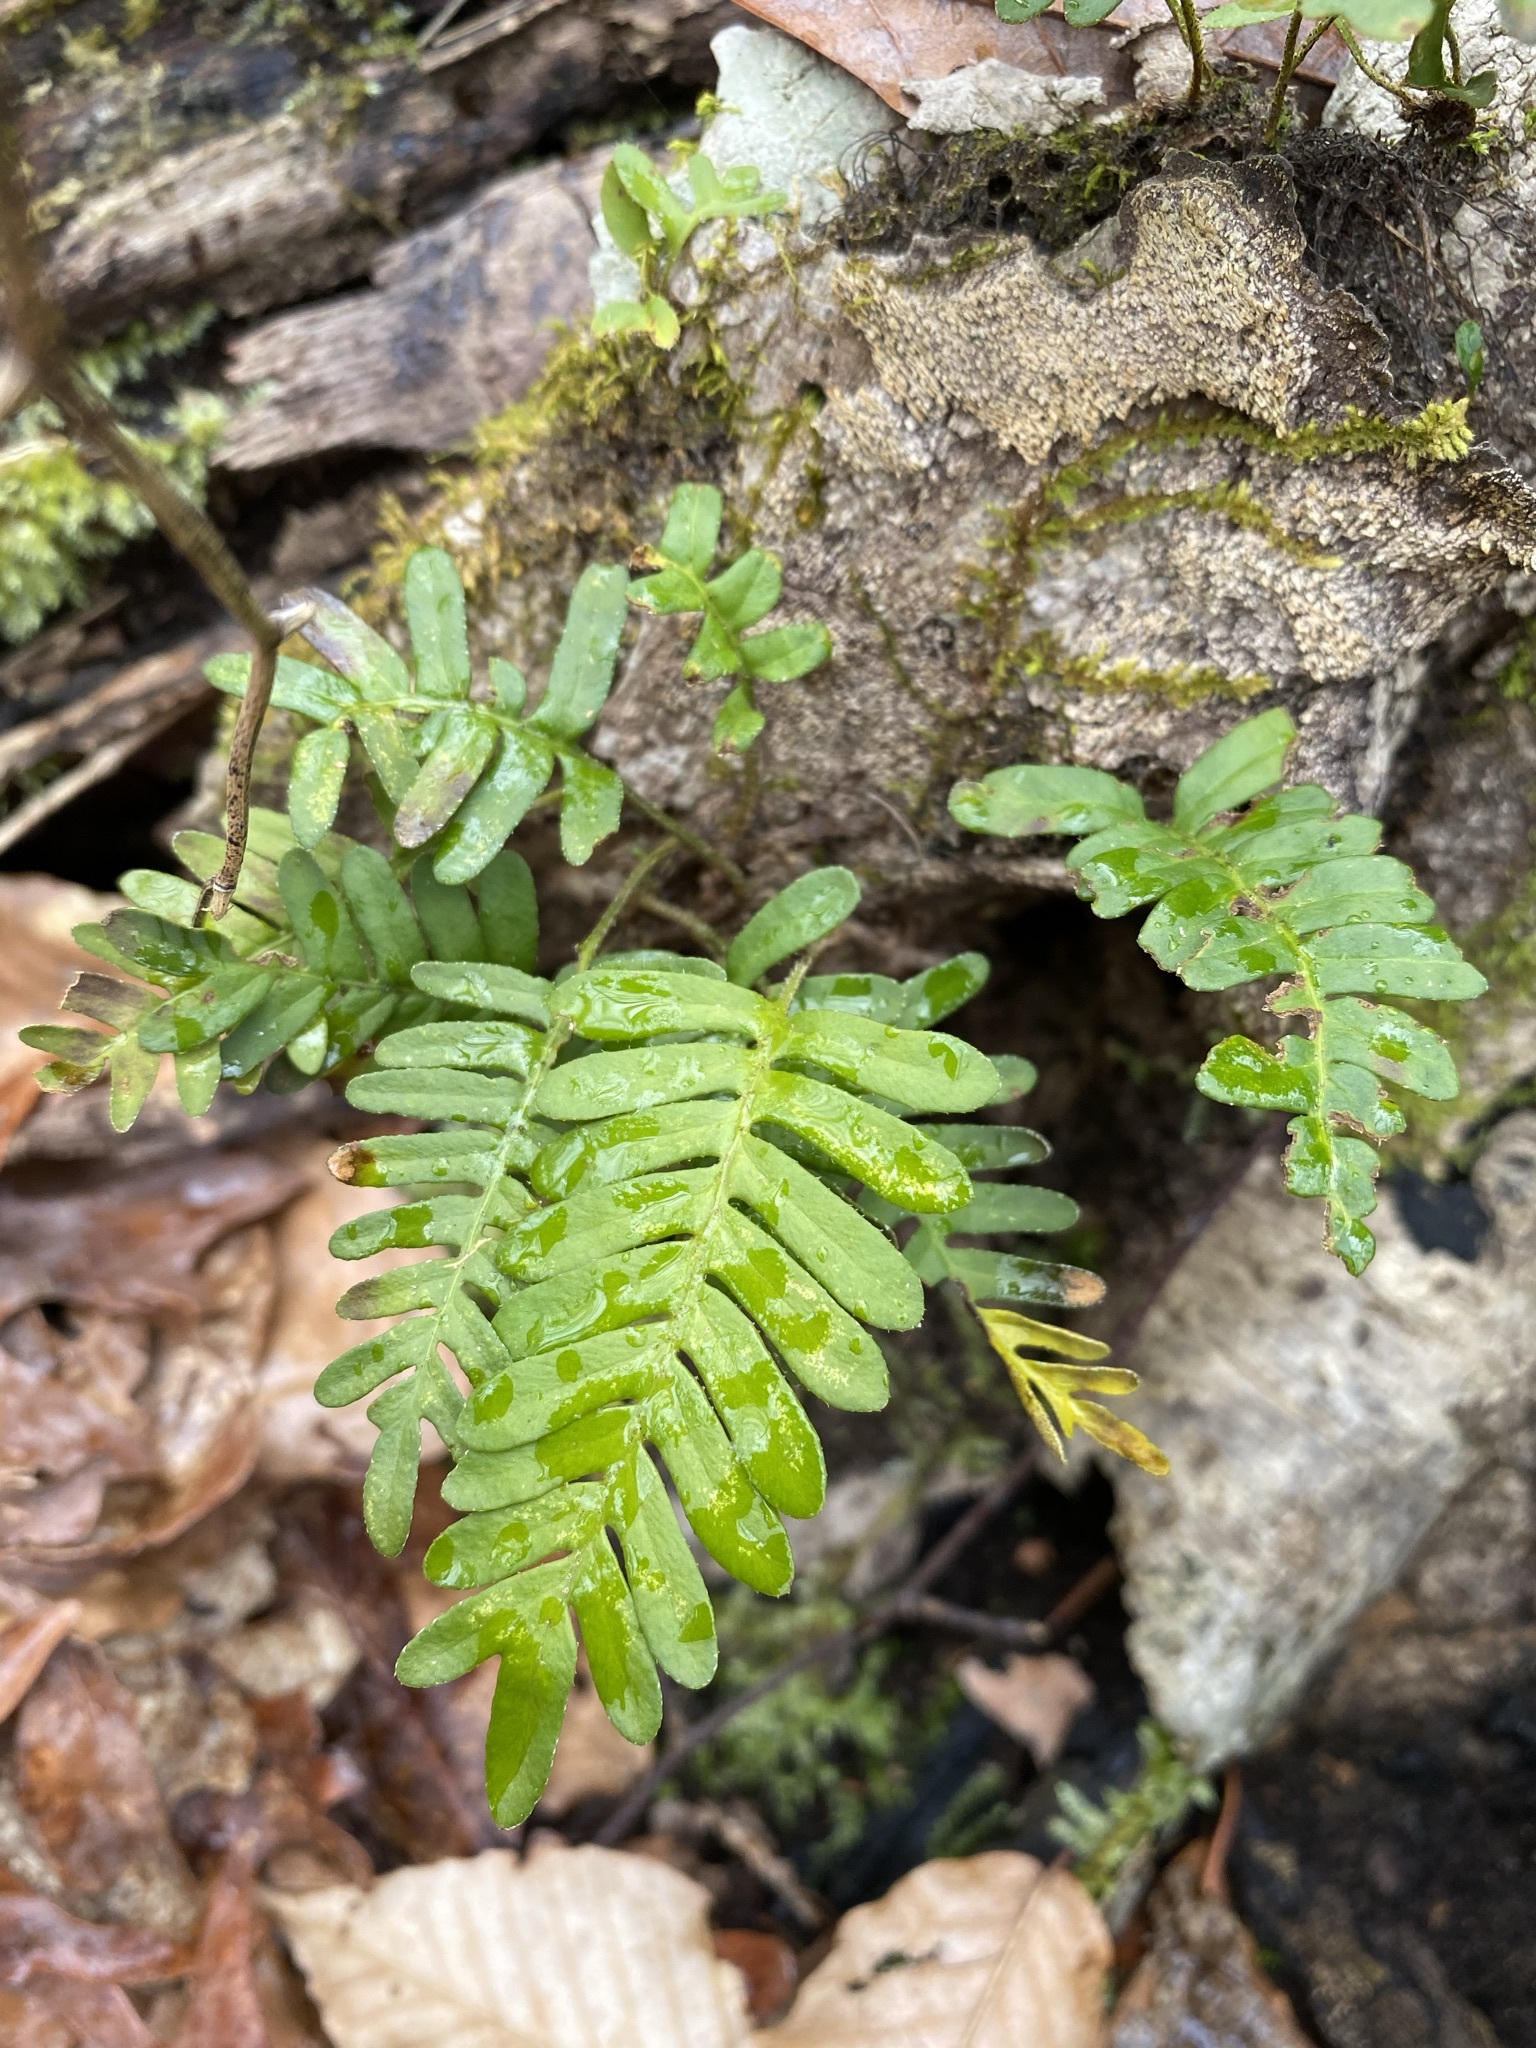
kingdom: Plantae
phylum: Tracheophyta
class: Polypodiopsida
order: Polypodiales
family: Polypodiaceae
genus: Pleopeltis
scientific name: Pleopeltis michauxiana
